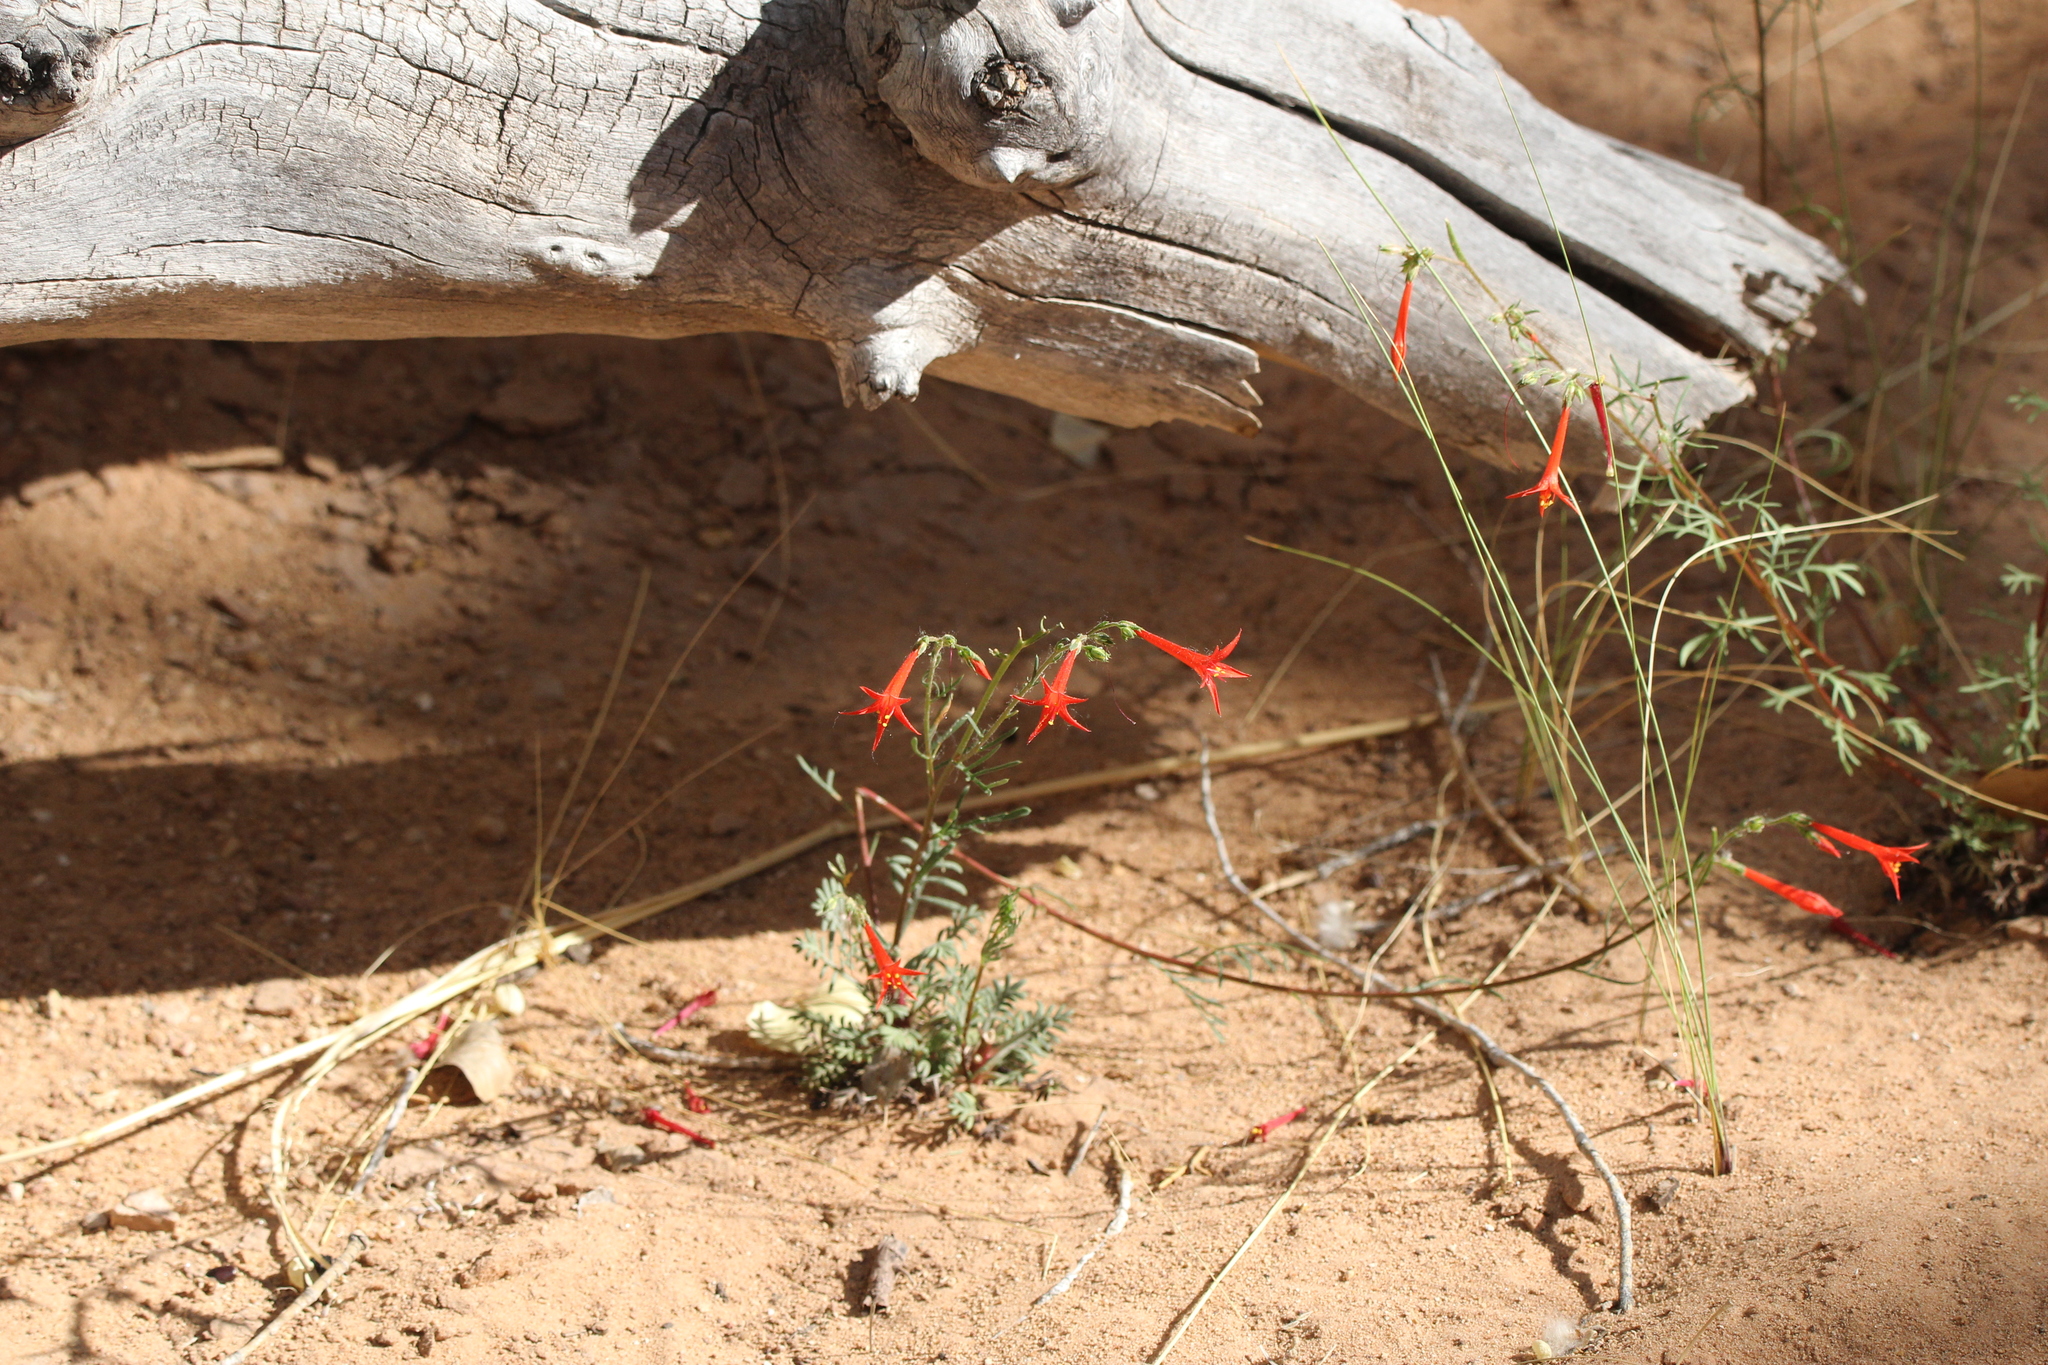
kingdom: Plantae
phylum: Tracheophyta
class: Magnoliopsida
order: Ericales
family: Polemoniaceae
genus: Ipomopsis
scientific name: Ipomopsis aggregata
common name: Scarlet gilia
